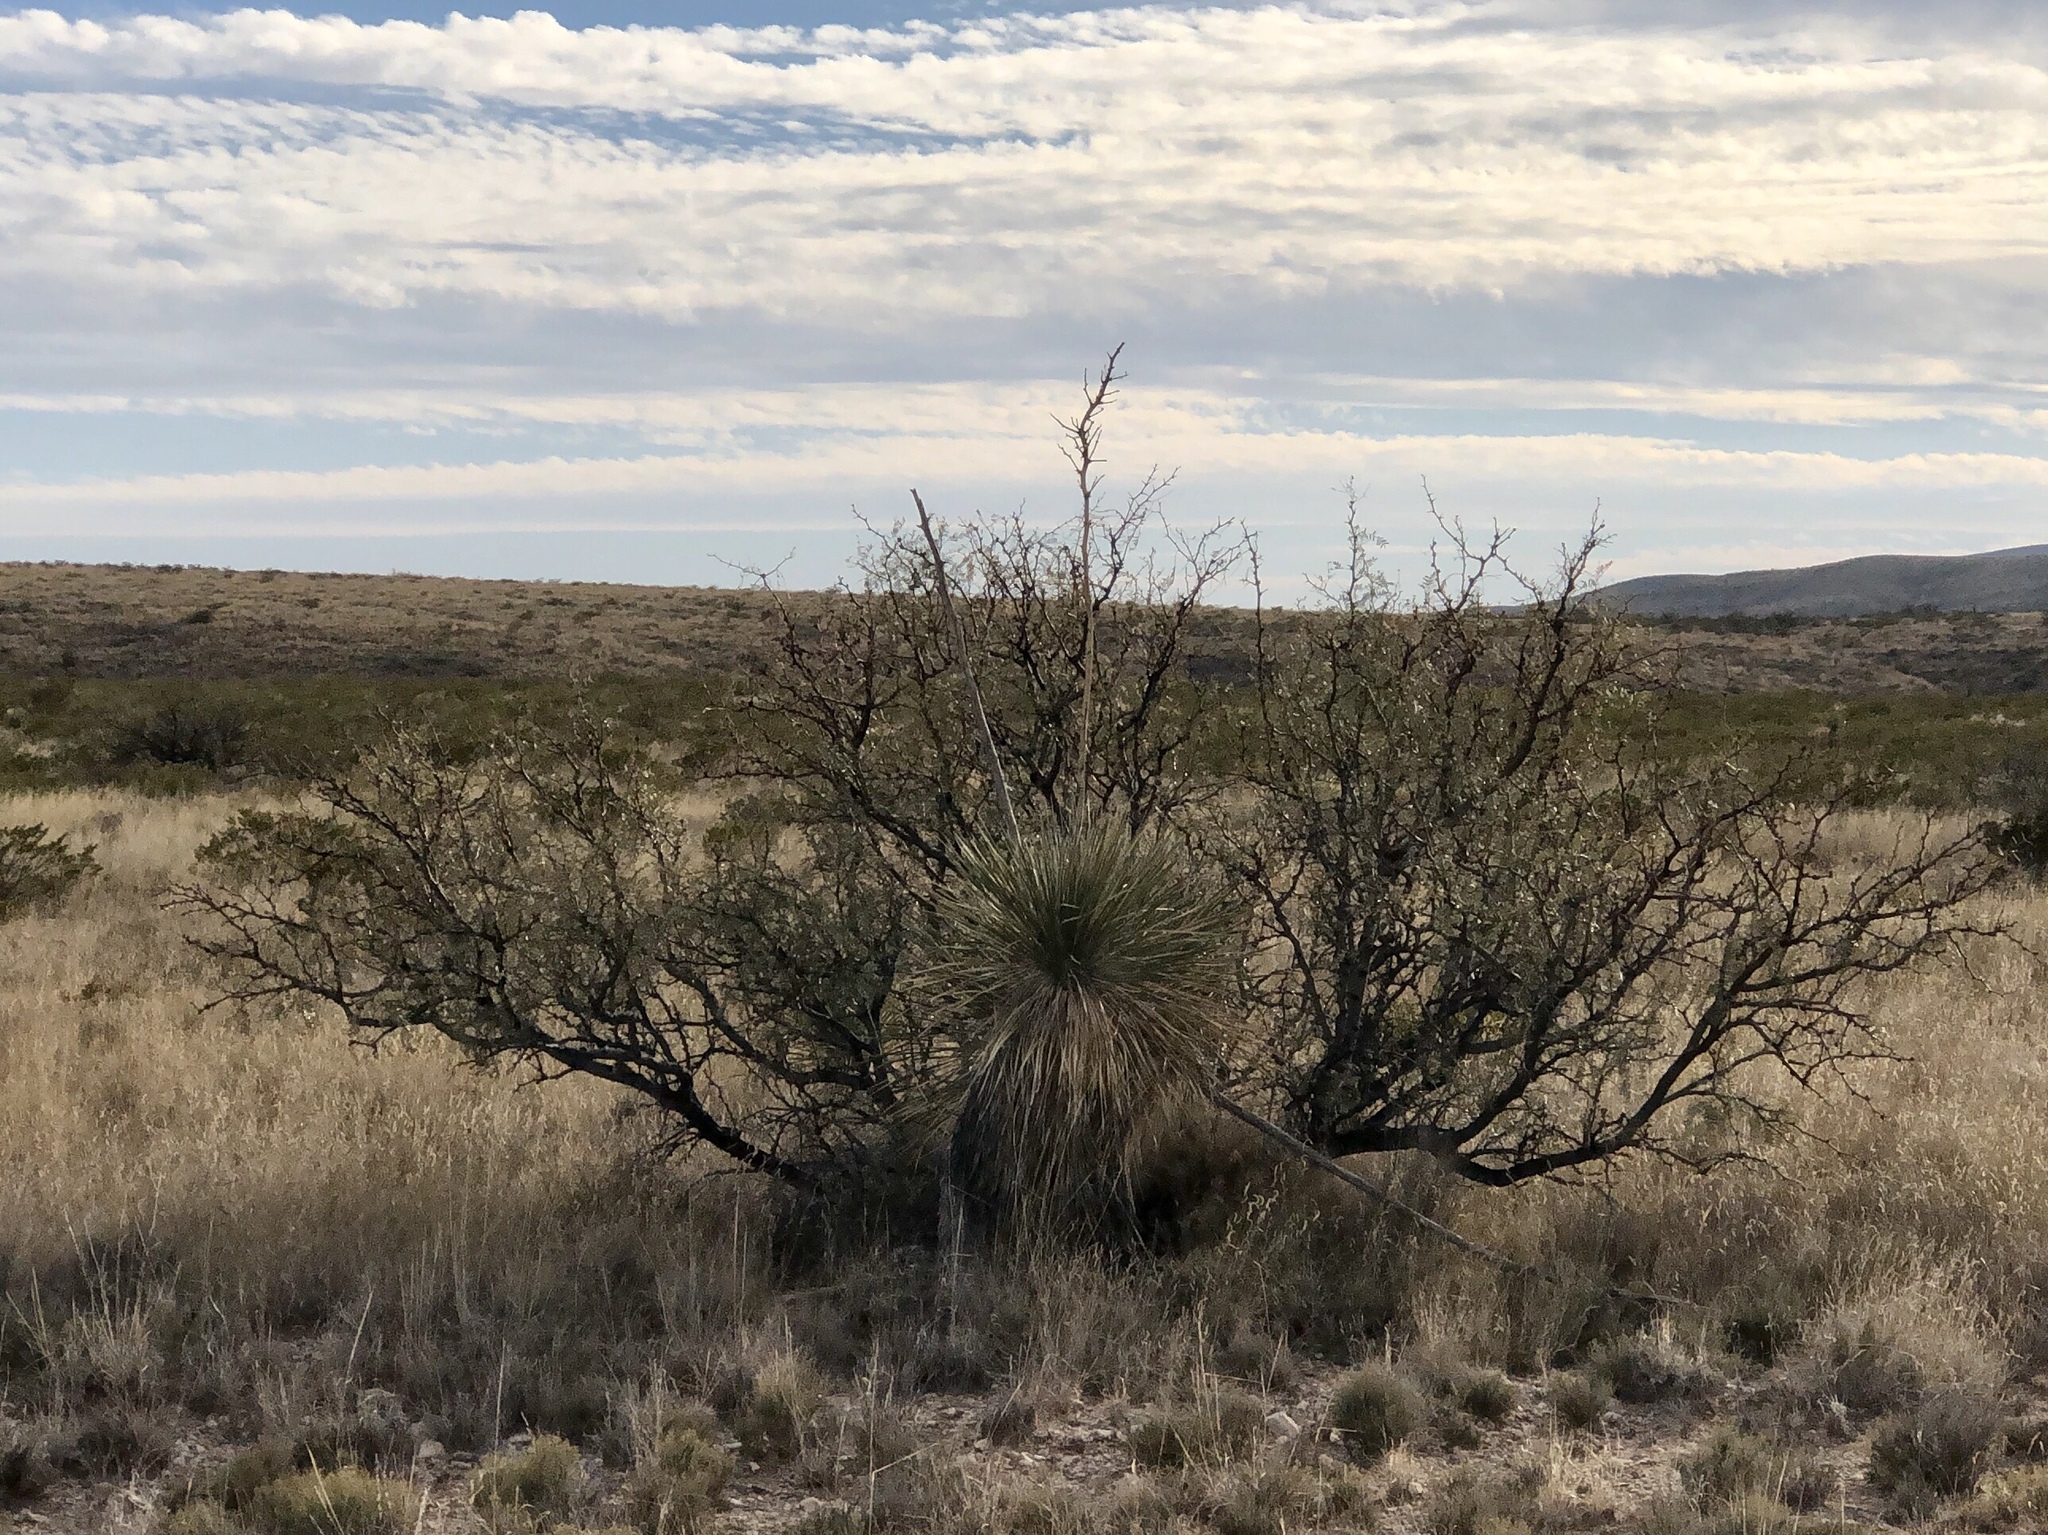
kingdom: Plantae
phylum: Tracheophyta
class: Magnoliopsida
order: Fabales
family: Fabaceae
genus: Prosopis
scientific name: Prosopis glandulosa
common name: Honey mesquite
